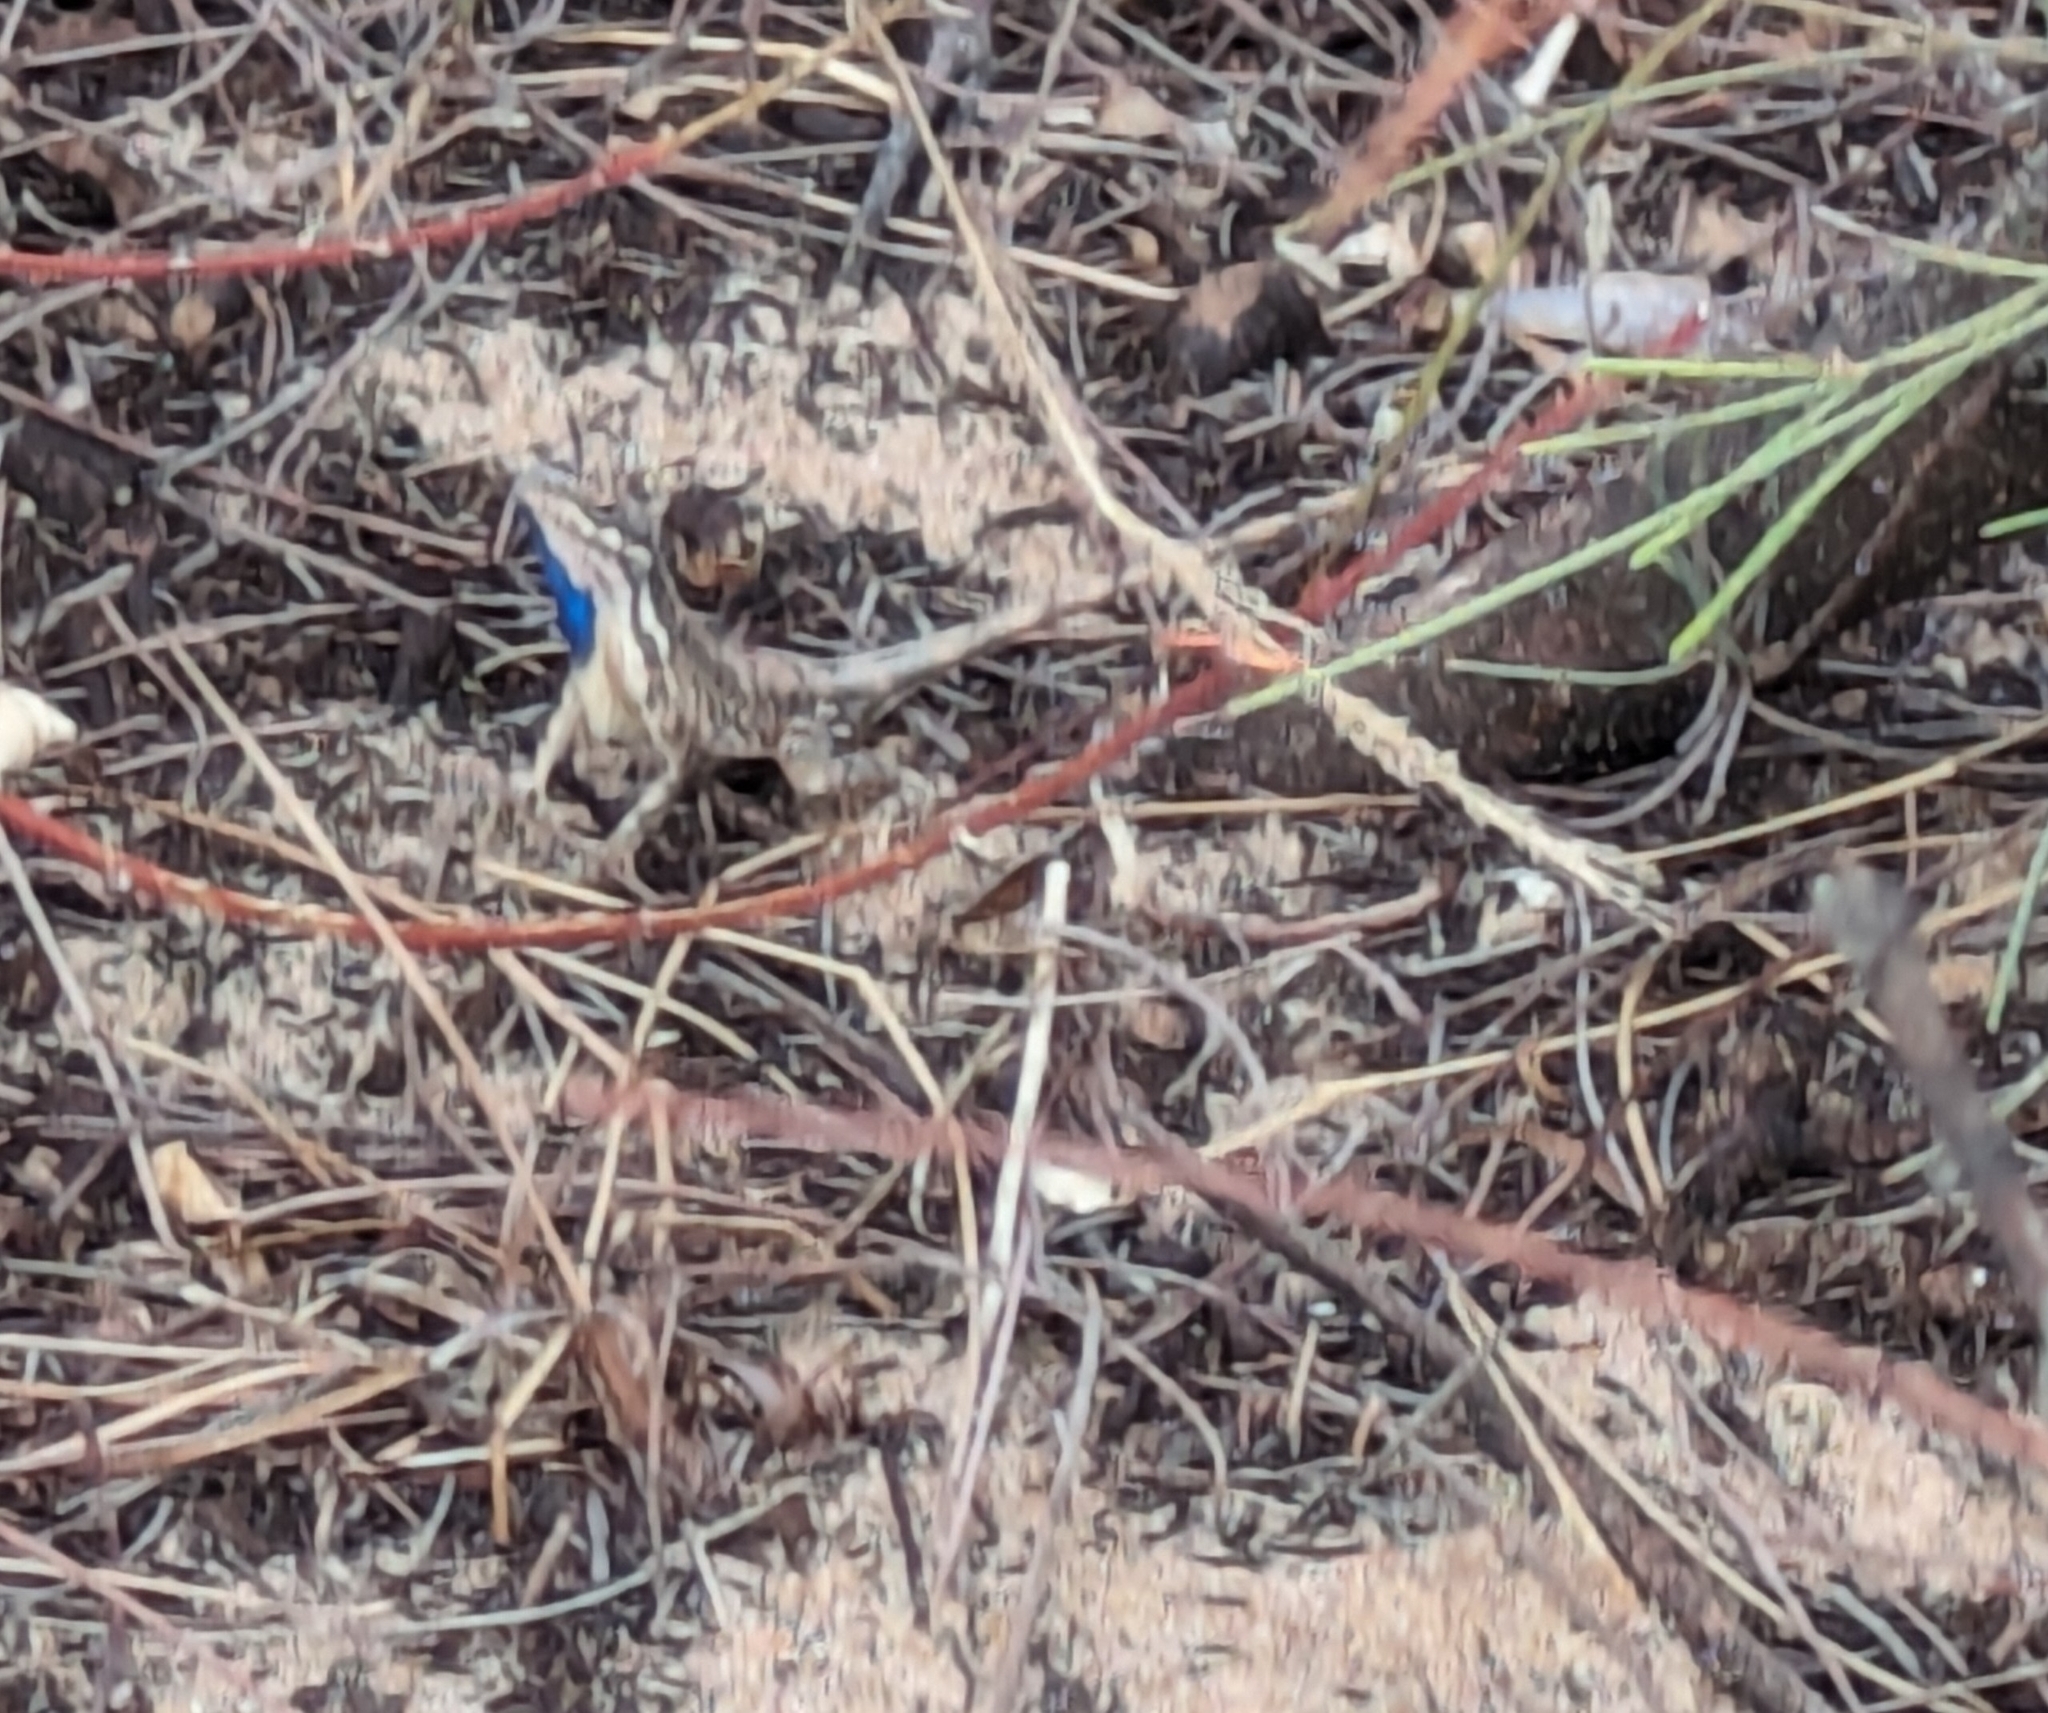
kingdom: Animalia
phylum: Chordata
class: Squamata
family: Agamidae
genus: Sitana
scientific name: Sitana marudhamneydhal
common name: Attenborough’s fan-throated lizard
